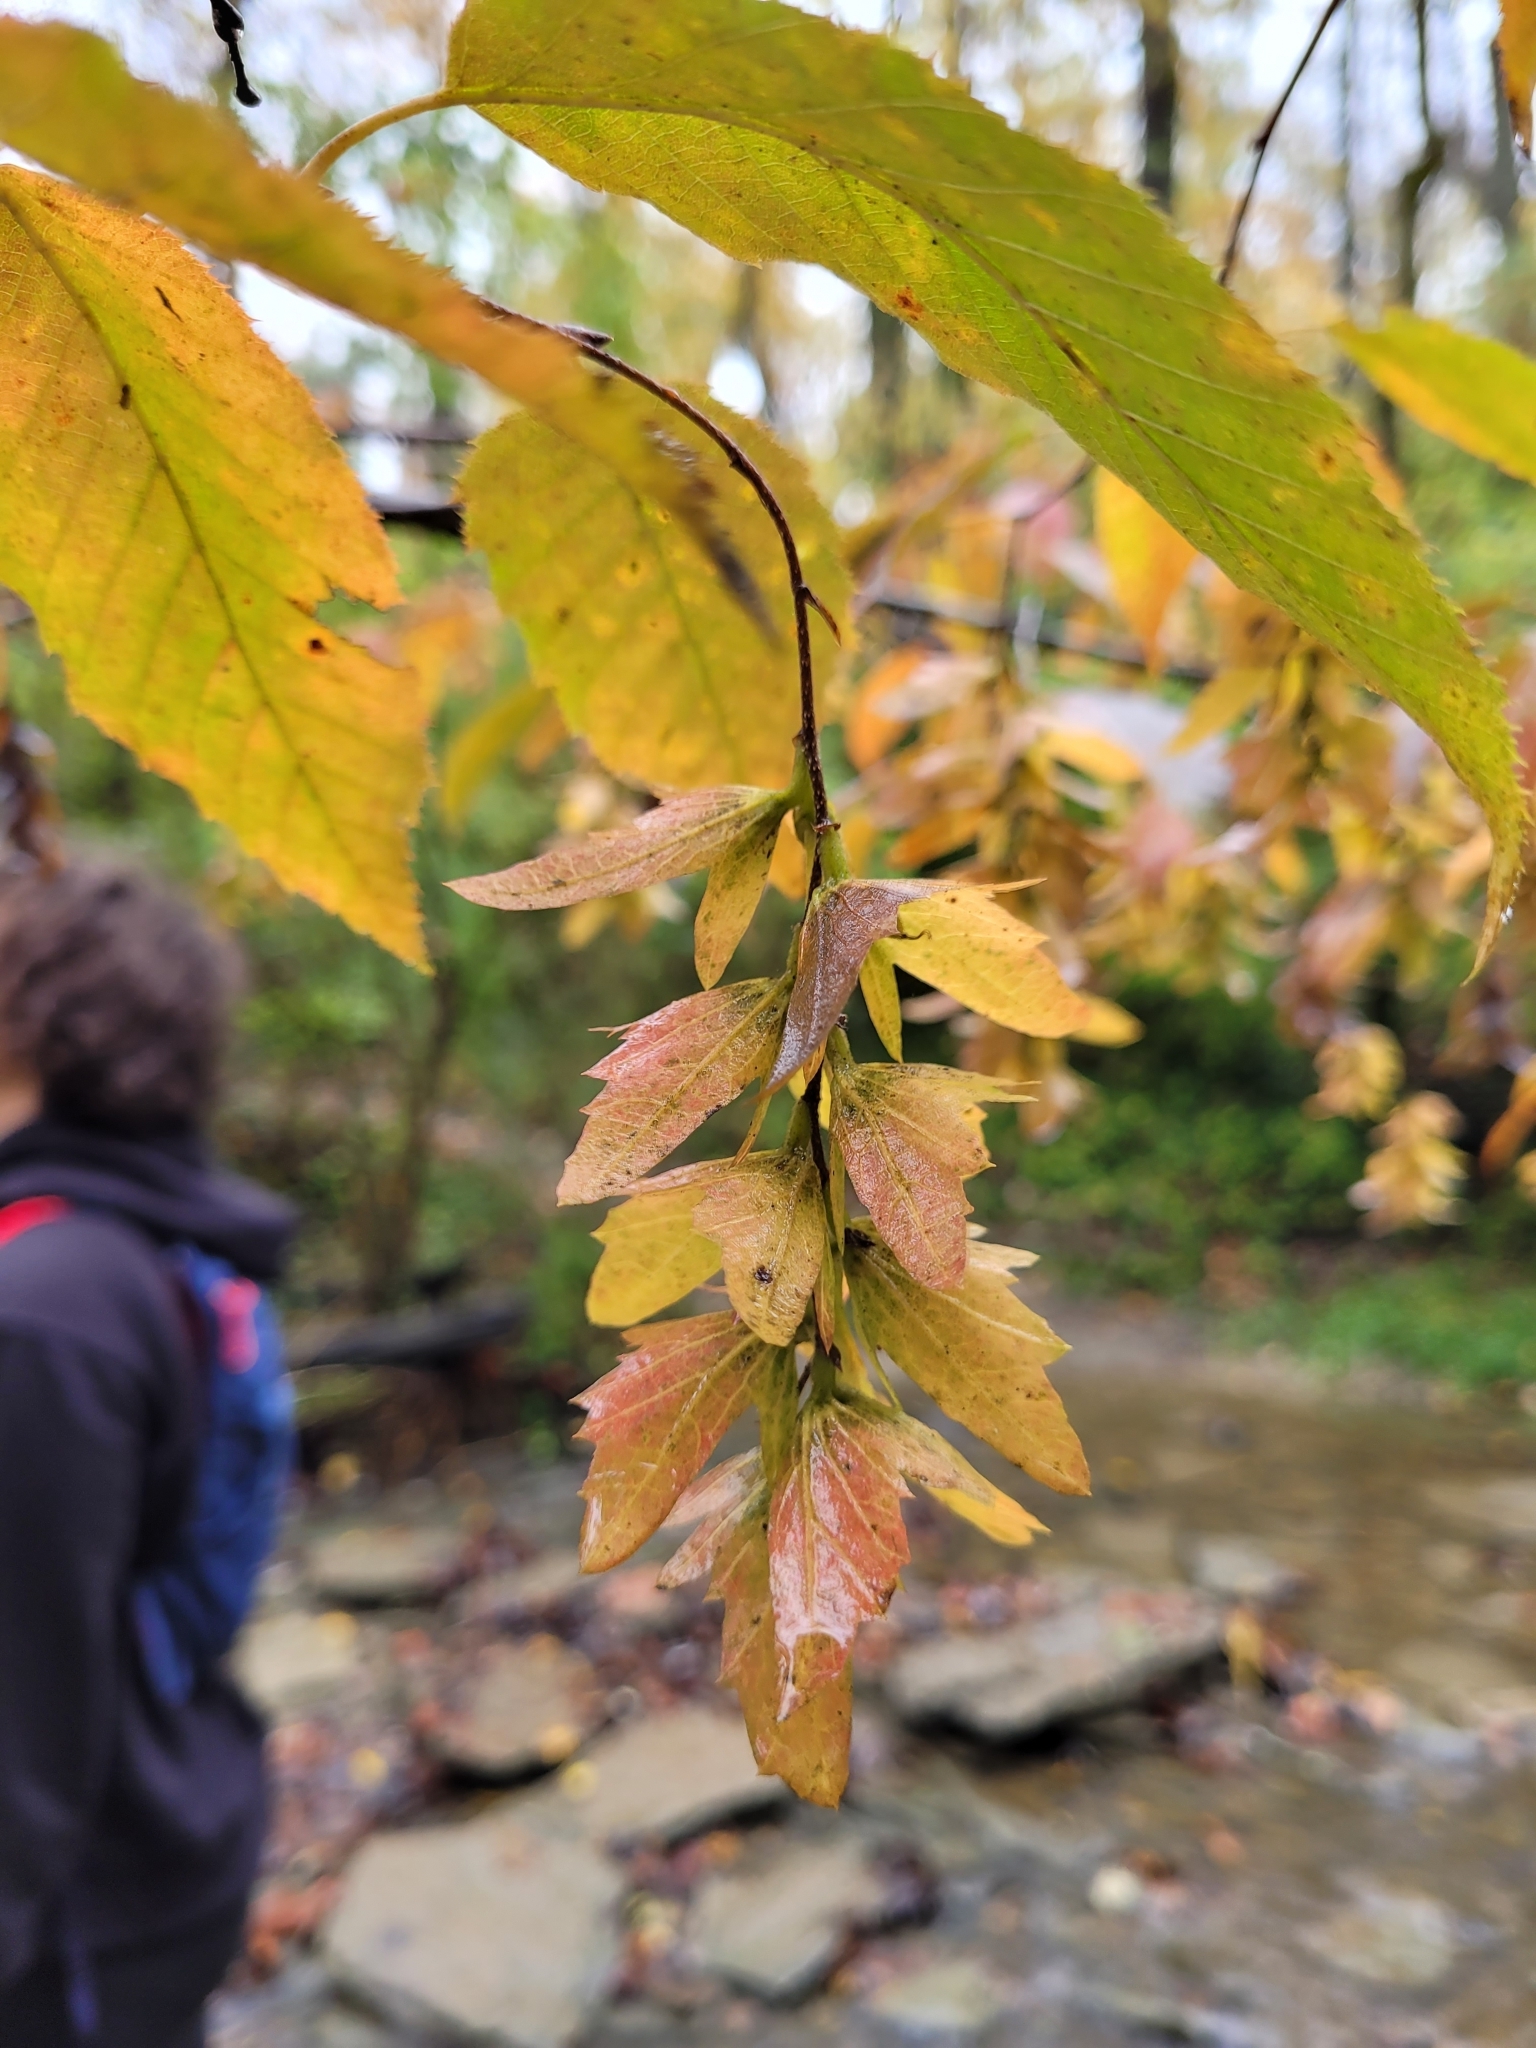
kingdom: Plantae
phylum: Tracheophyta
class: Magnoliopsida
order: Fagales
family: Betulaceae
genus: Carpinus
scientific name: Carpinus caroliniana
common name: American hornbeam
